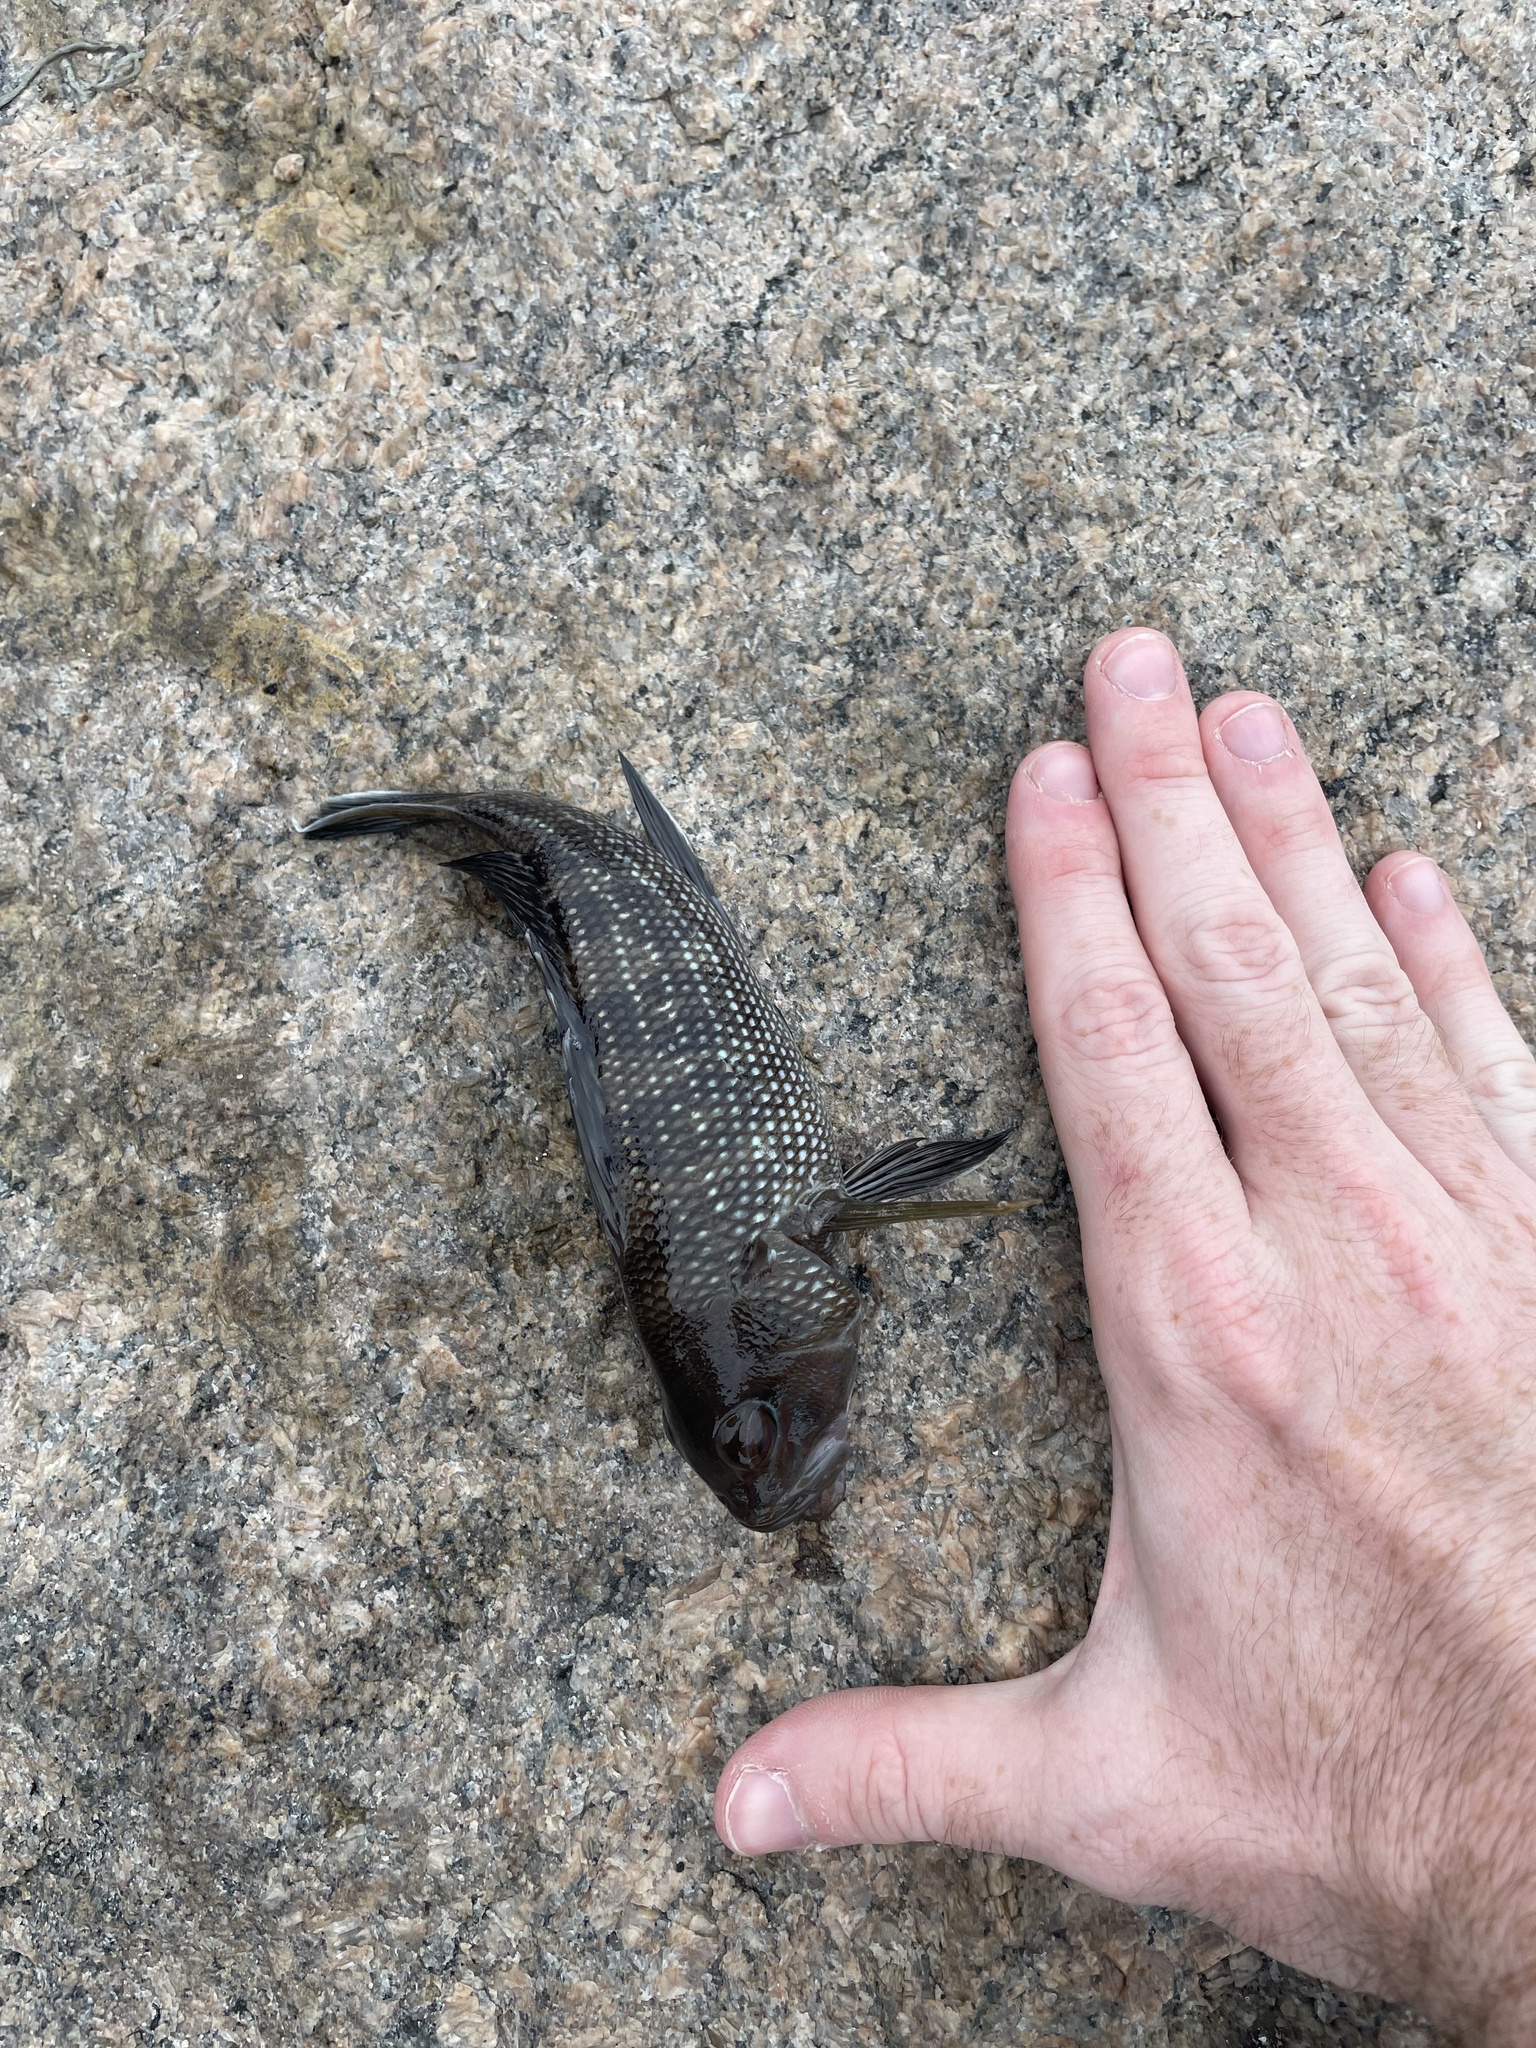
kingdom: Animalia
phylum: Chordata
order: Perciformes
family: Serranidae
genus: Centropristis
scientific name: Centropristis striata
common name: Black sea bass
